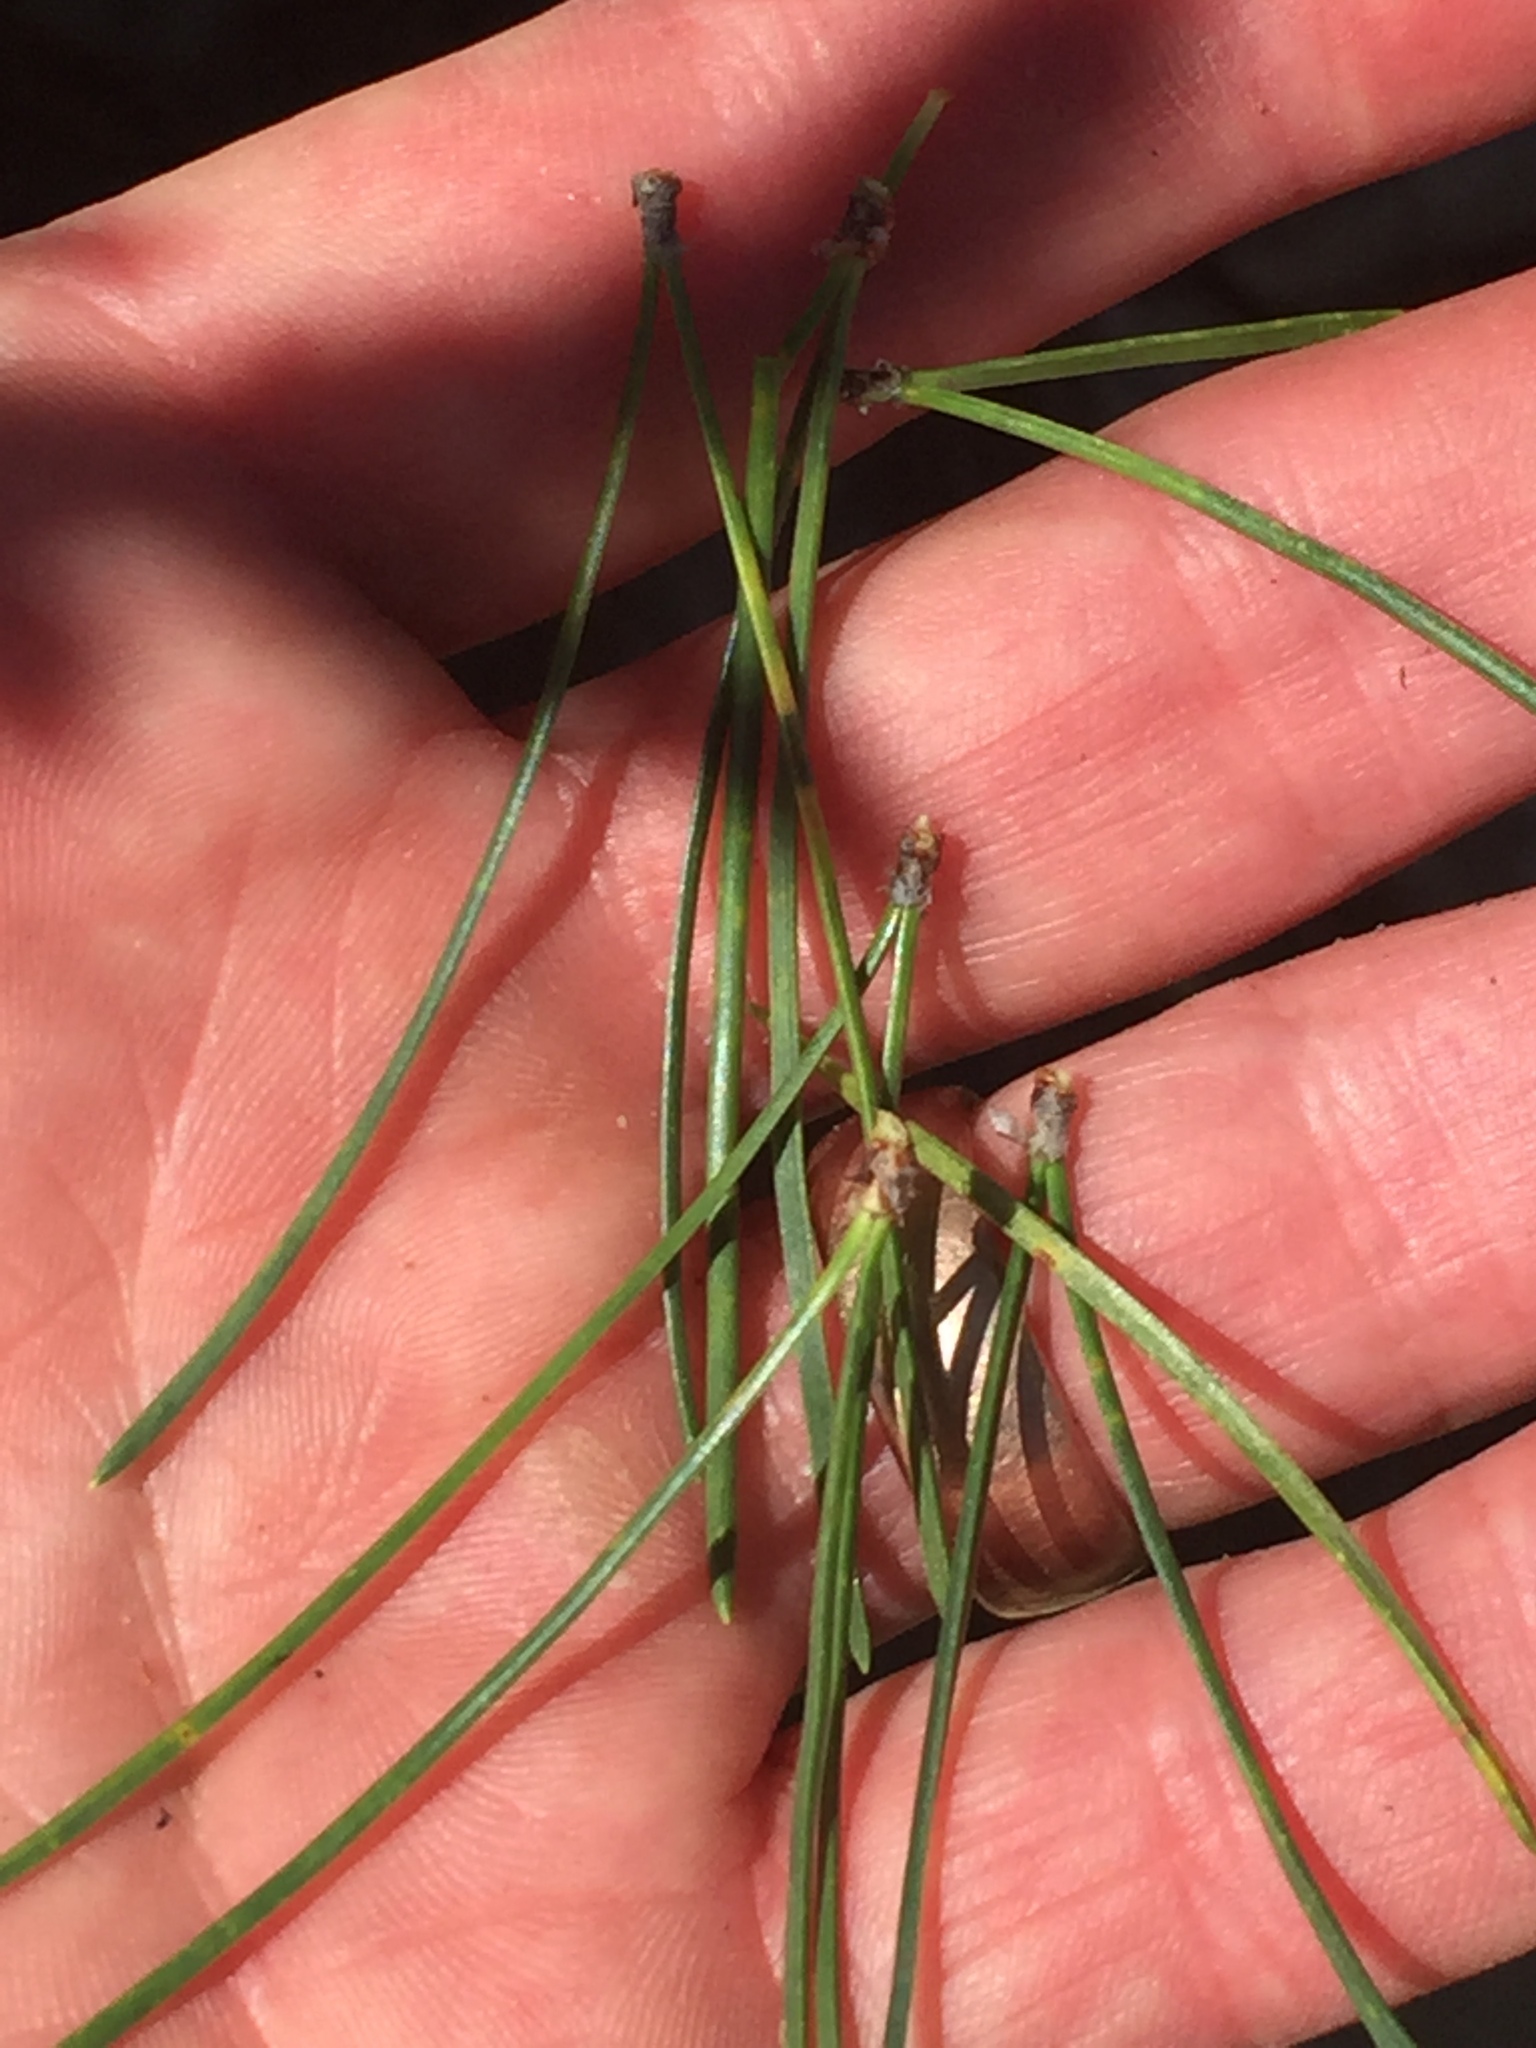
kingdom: Plantae
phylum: Tracheophyta
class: Pinopsida
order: Pinales
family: Pinaceae
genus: Pinus
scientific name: Pinus contorta
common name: Lodgepole pine
